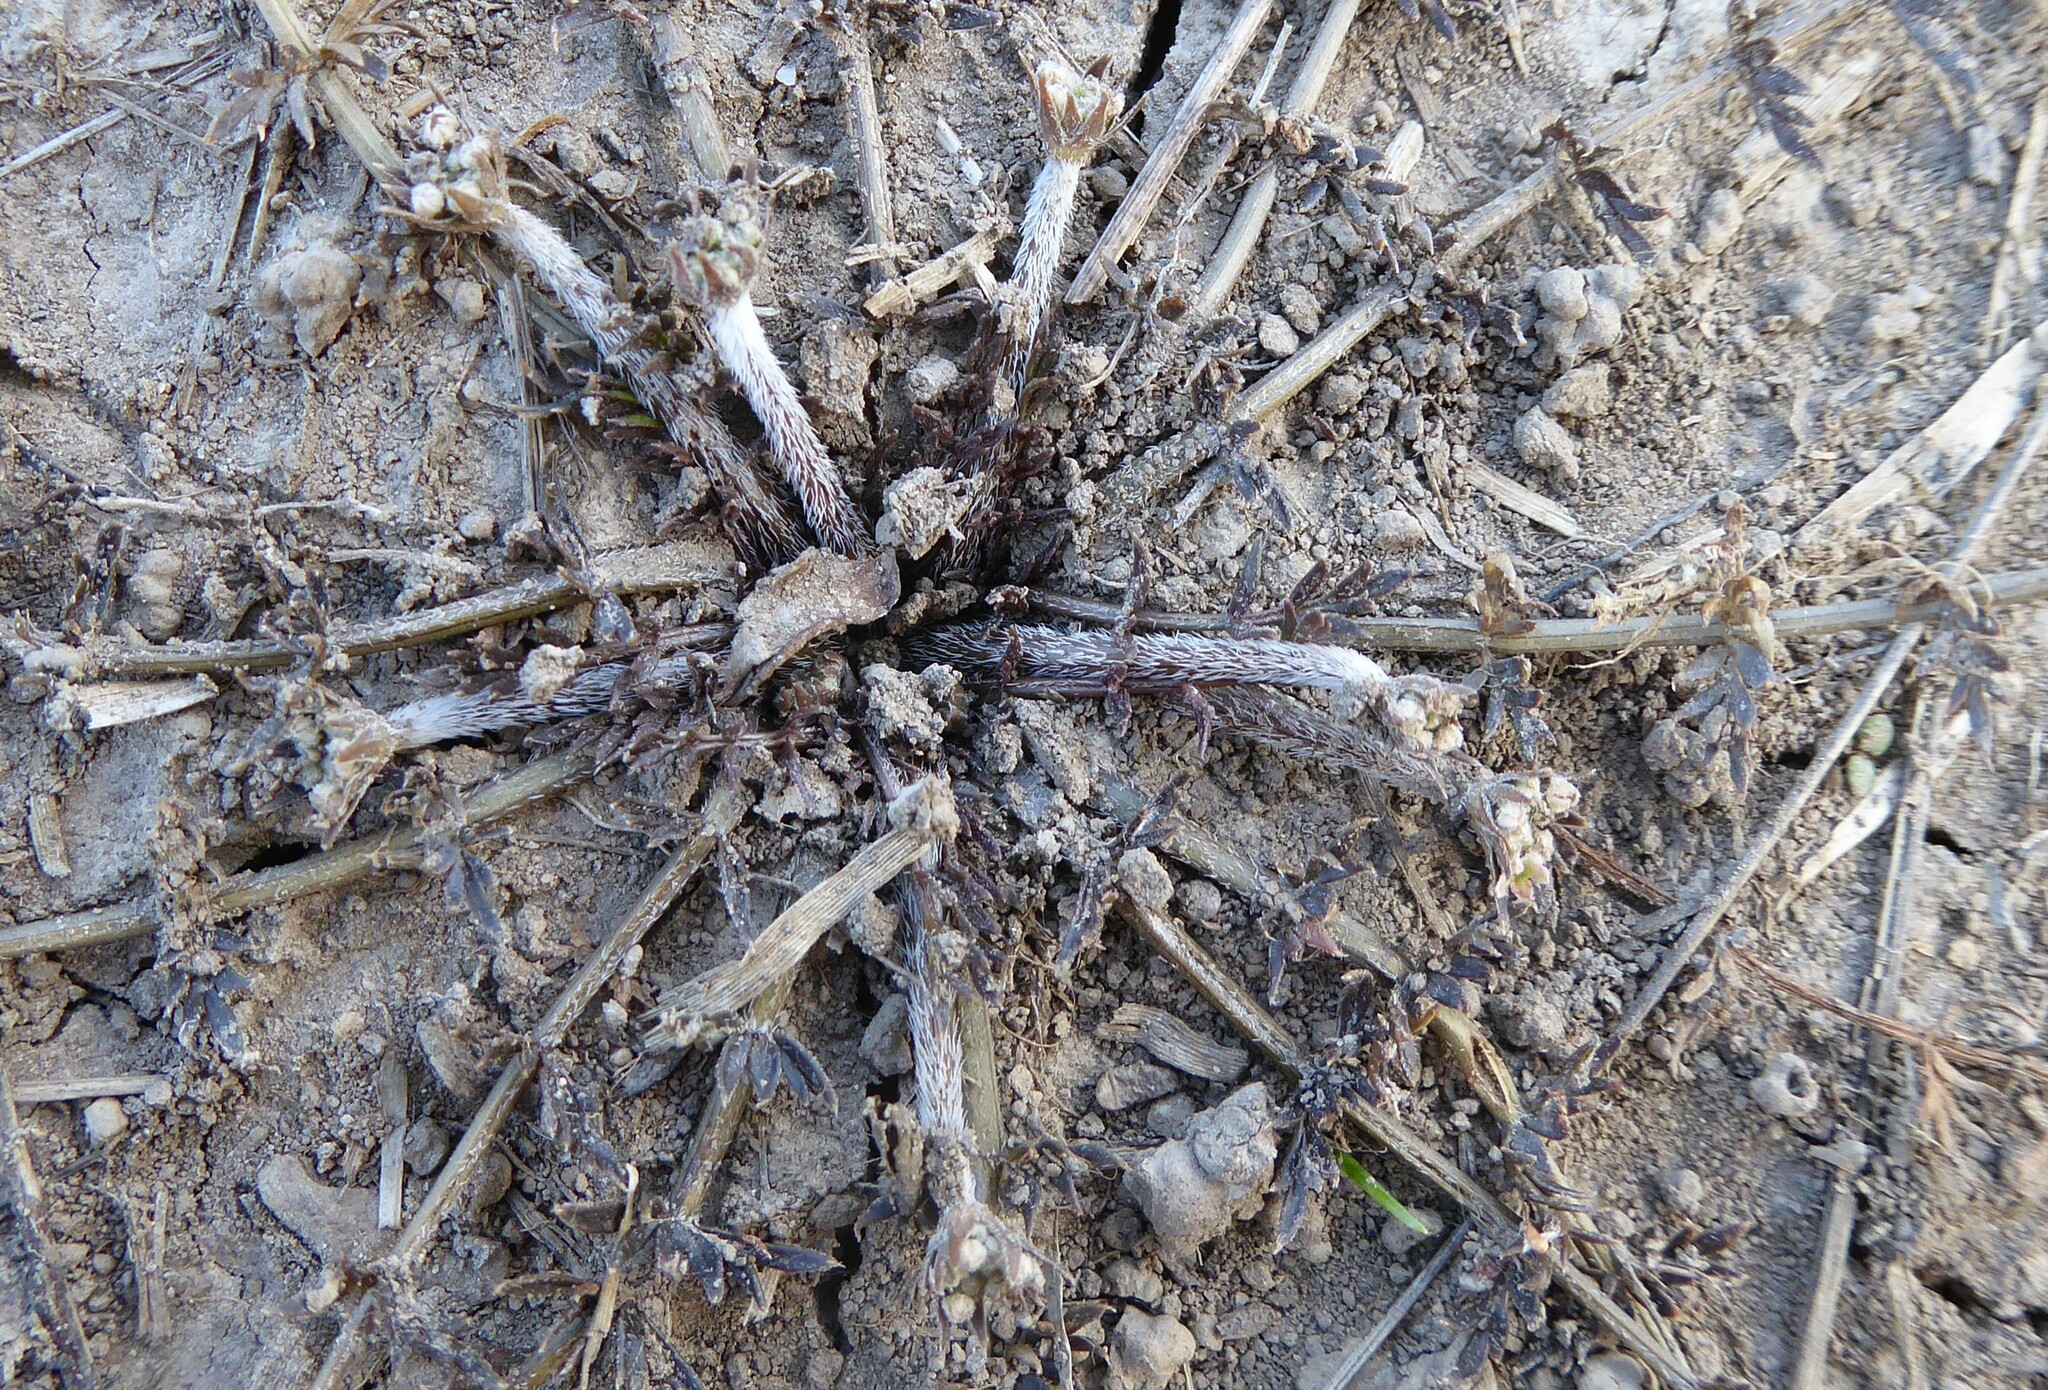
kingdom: Plantae
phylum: Tracheophyta
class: Magnoliopsida
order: Apiales
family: Apiaceae
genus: Chaerophyllum
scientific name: Chaerophyllum novae-zelandiae
